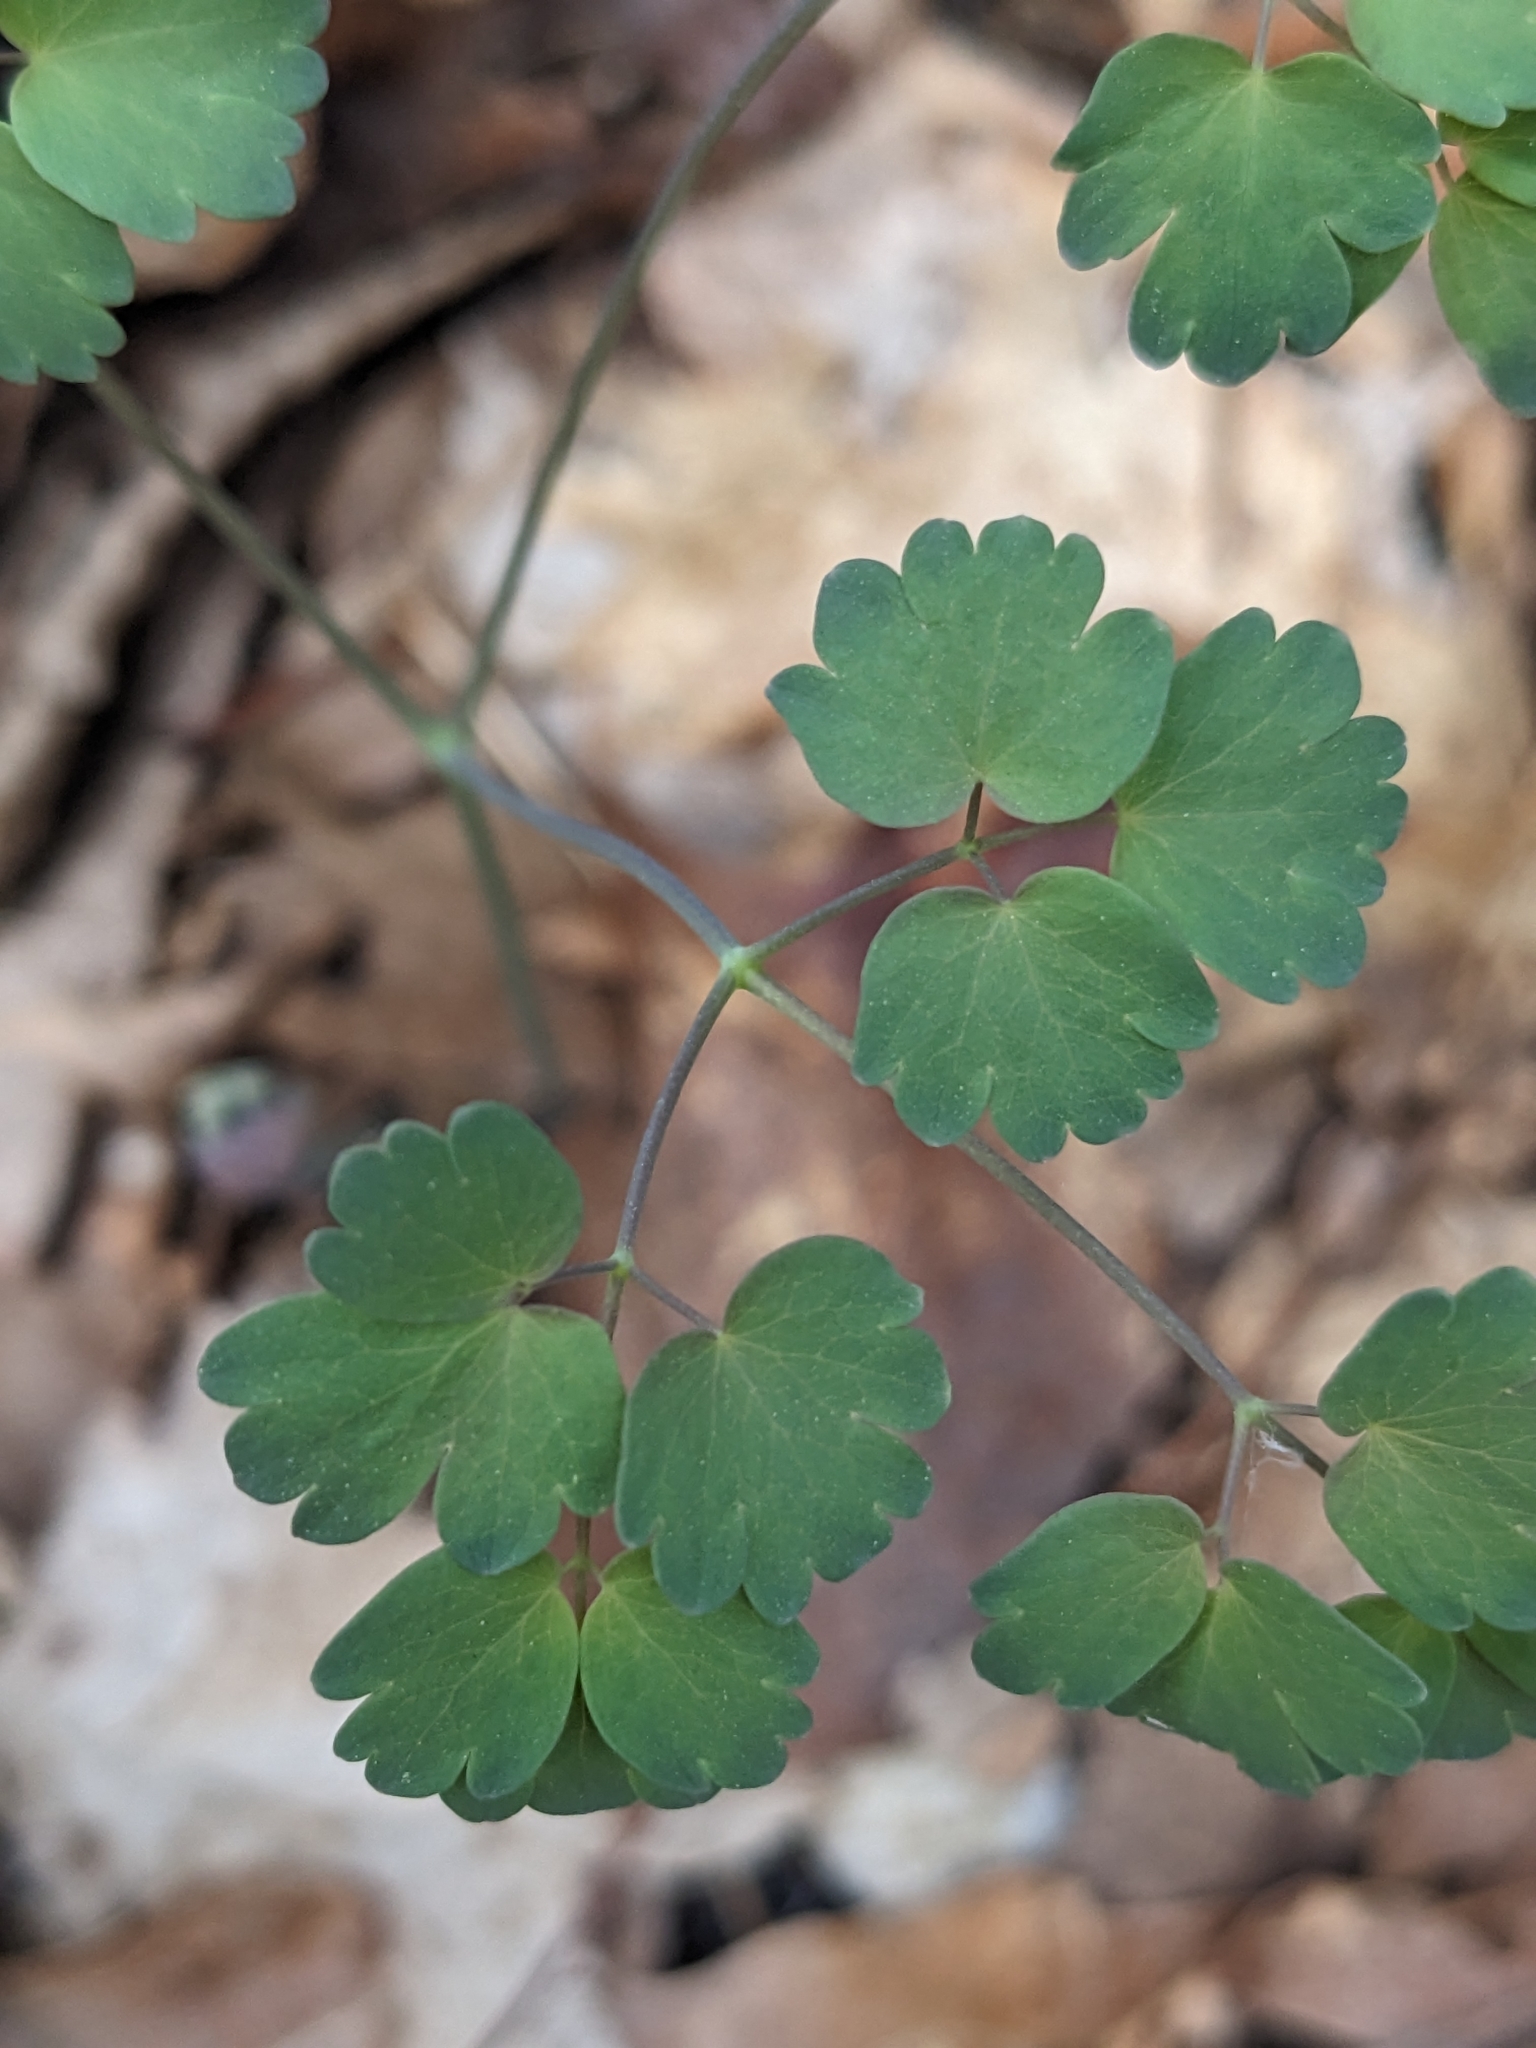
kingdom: Plantae
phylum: Tracheophyta
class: Magnoliopsida
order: Ranunculales
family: Ranunculaceae
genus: Thalictrum
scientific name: Thalictrum dioicum
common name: Early meadow-rue
